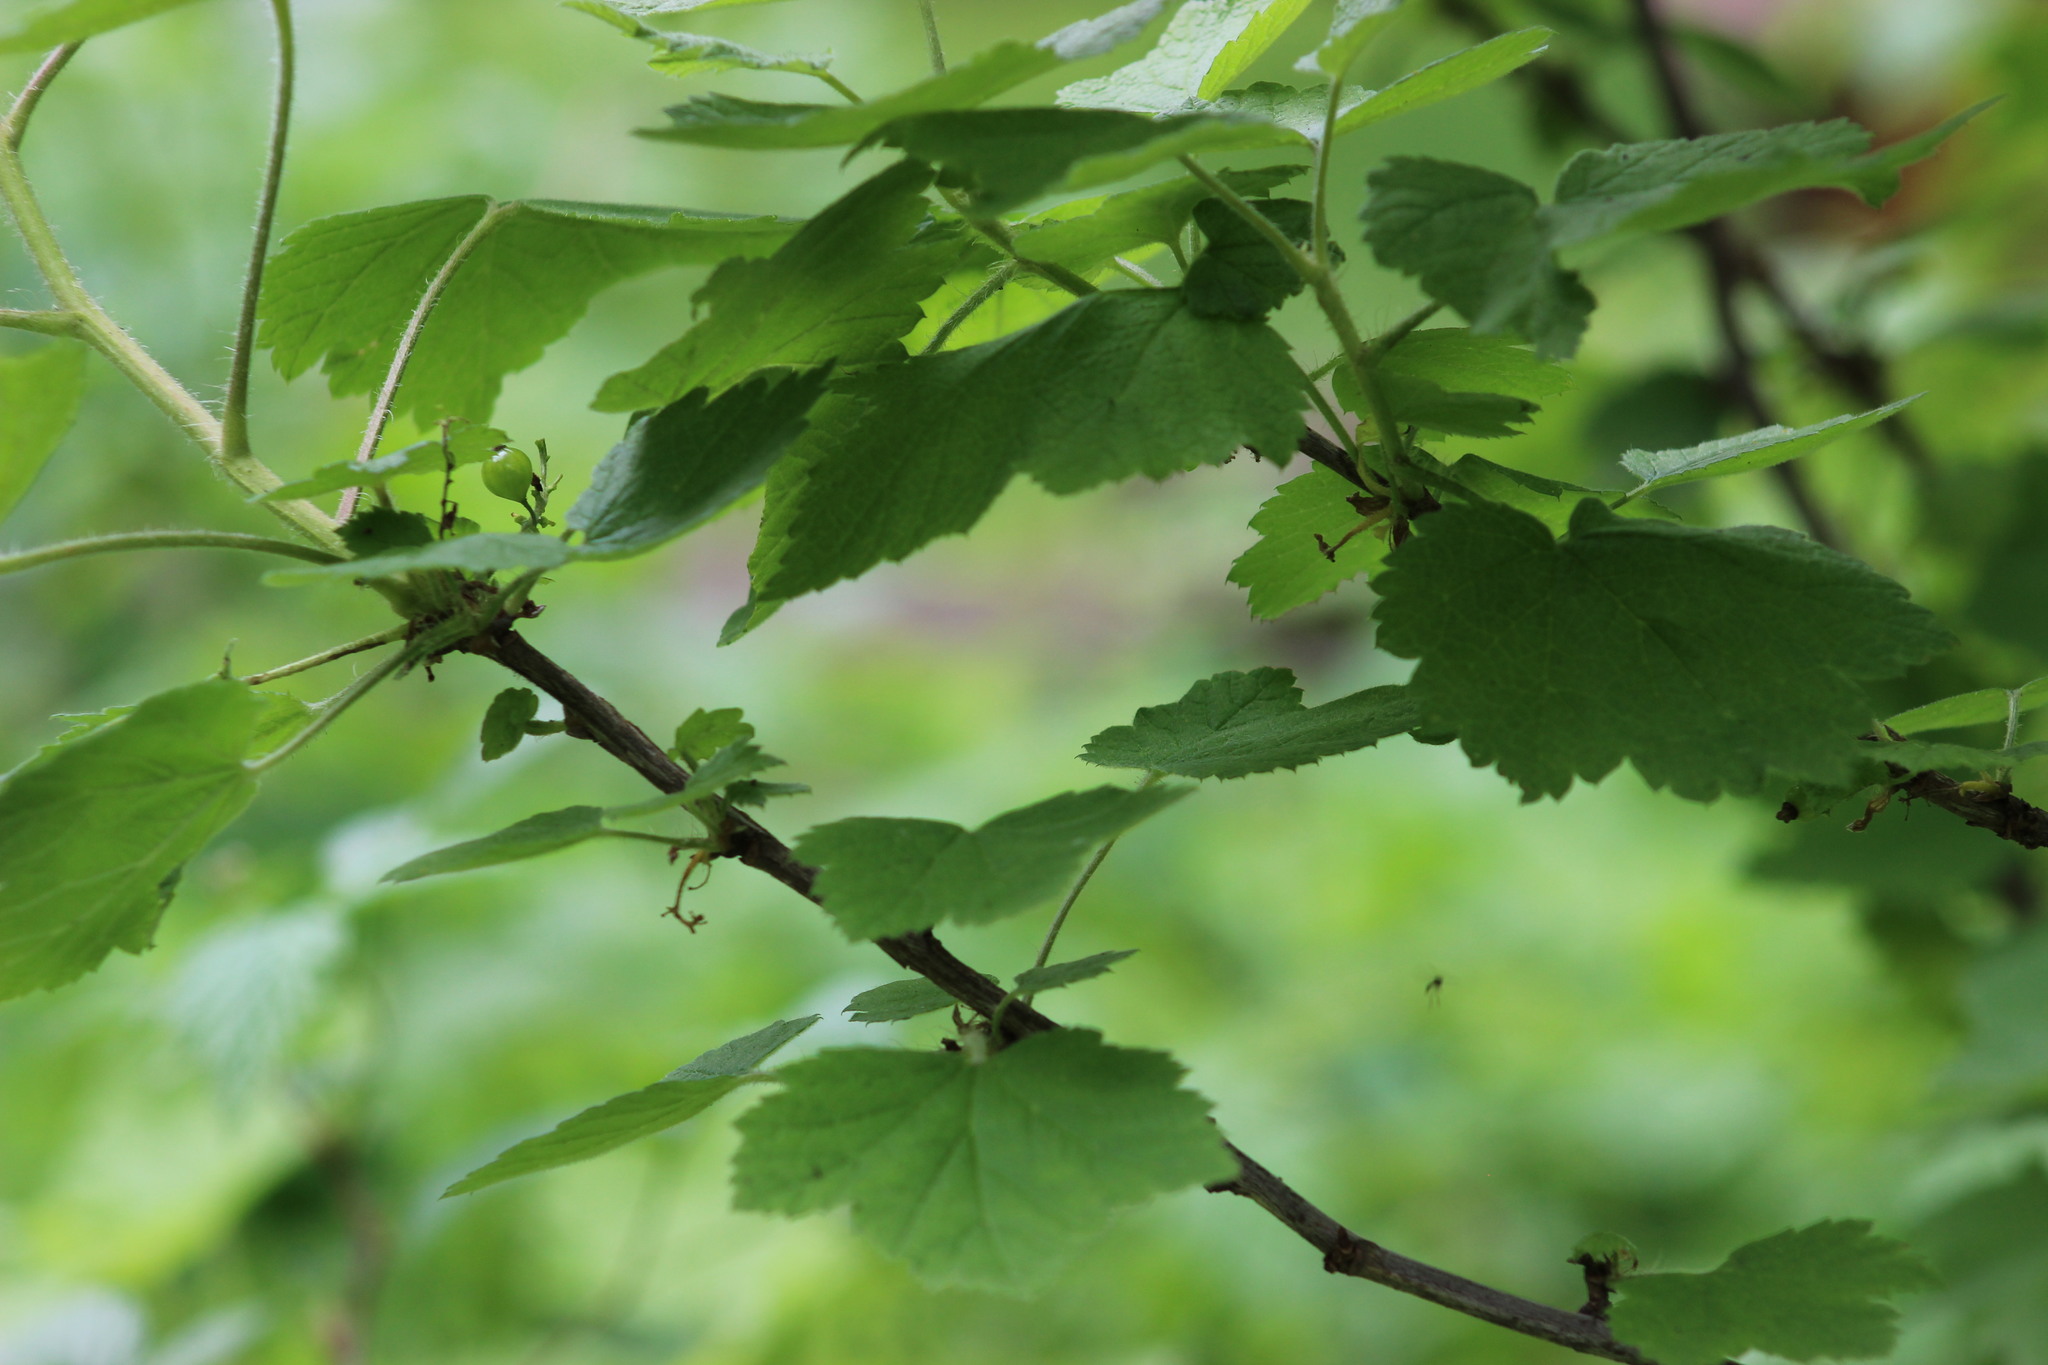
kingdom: Plantae
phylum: Tracheophyta
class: Magnoliopsida
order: Saxifragales
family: Grossulariaceae
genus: Ribes
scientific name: Ribes nidigrolaria
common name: Jostaberry
